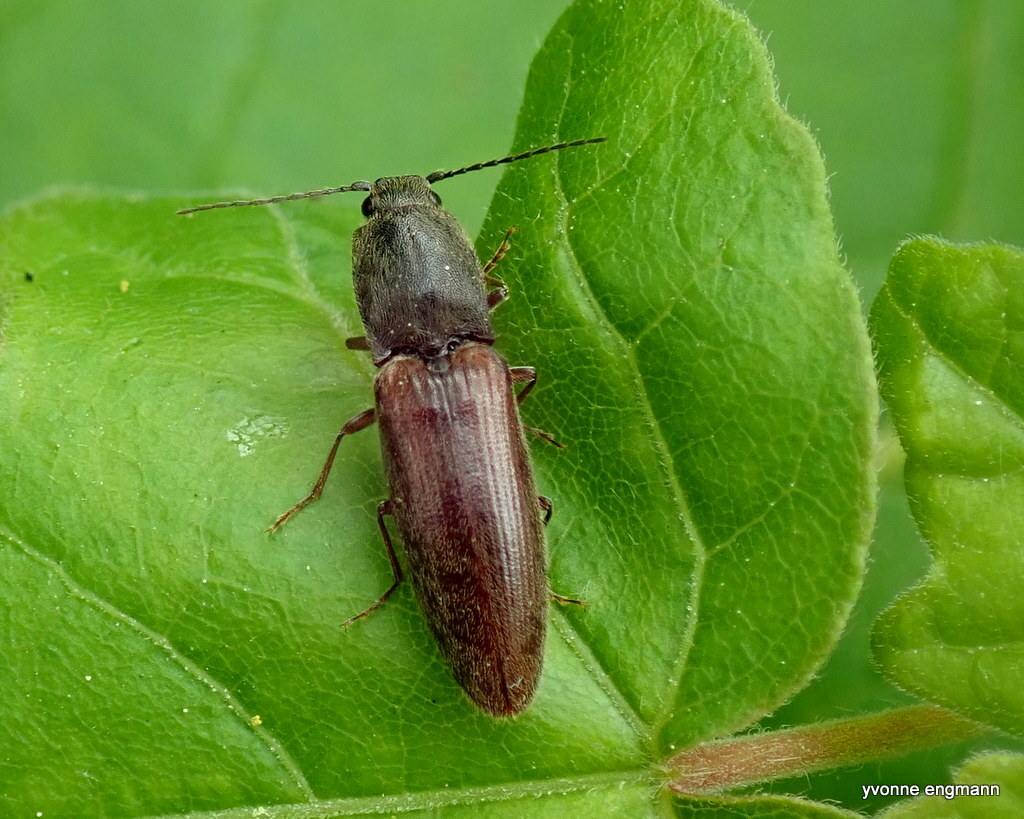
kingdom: Animalia
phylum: Arthropoda
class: Insecta
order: Coleoptera
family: Elateridae
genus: Athous
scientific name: Athous haemorrhoidalis
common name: Red-brown click beetle
